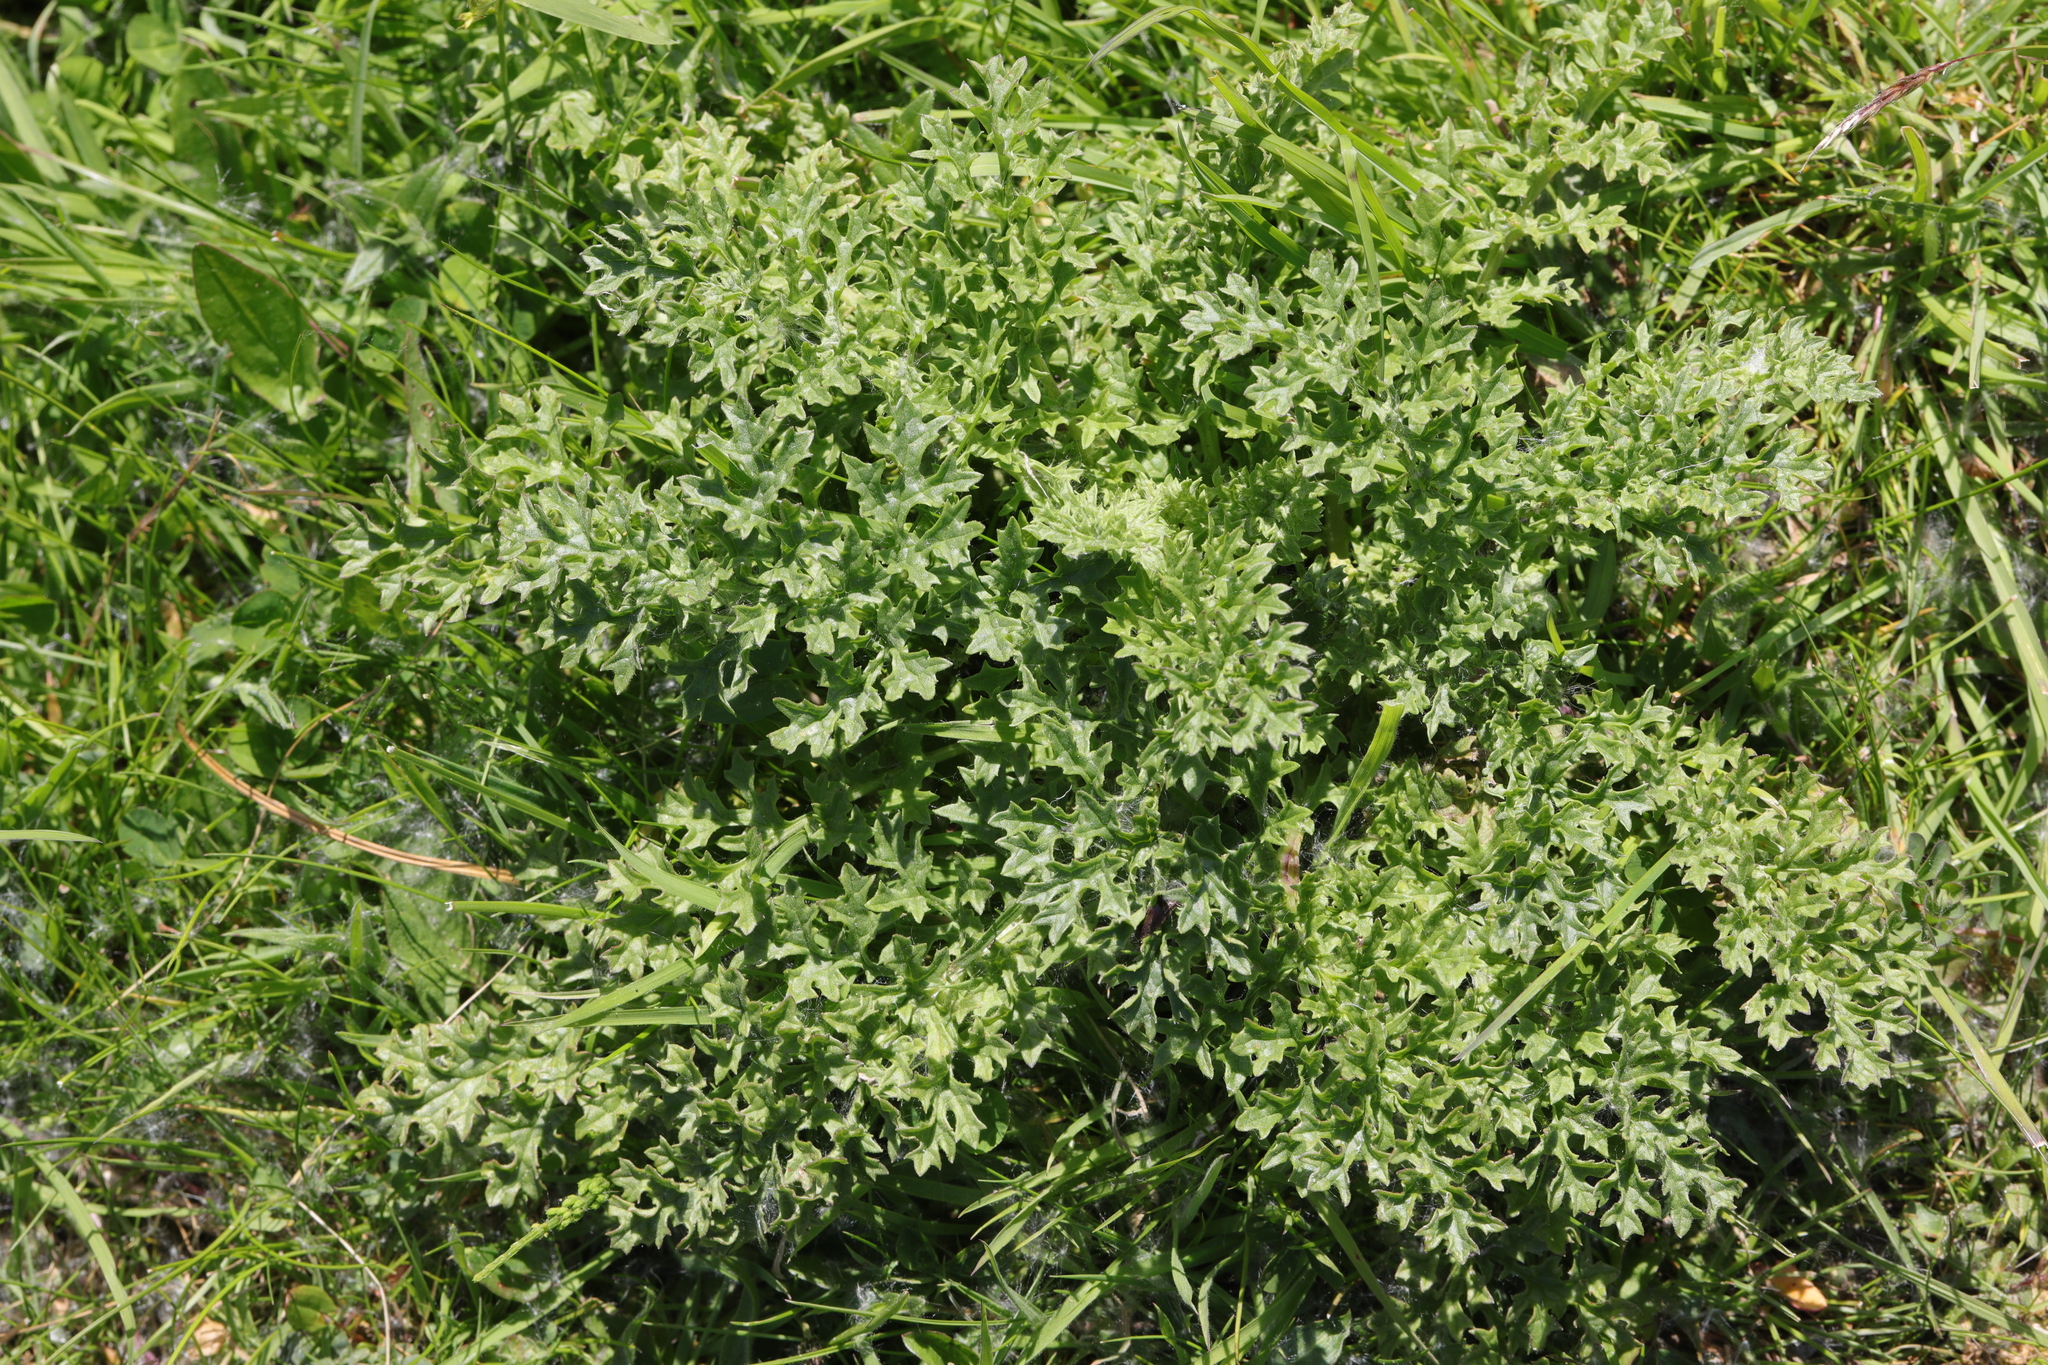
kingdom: Plantae
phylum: Tracheophyta
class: Magnoliopsida
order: Asterales
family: Asteraceae
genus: Jacobaea
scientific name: Jacobaea vulgaris
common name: Stinking willie
